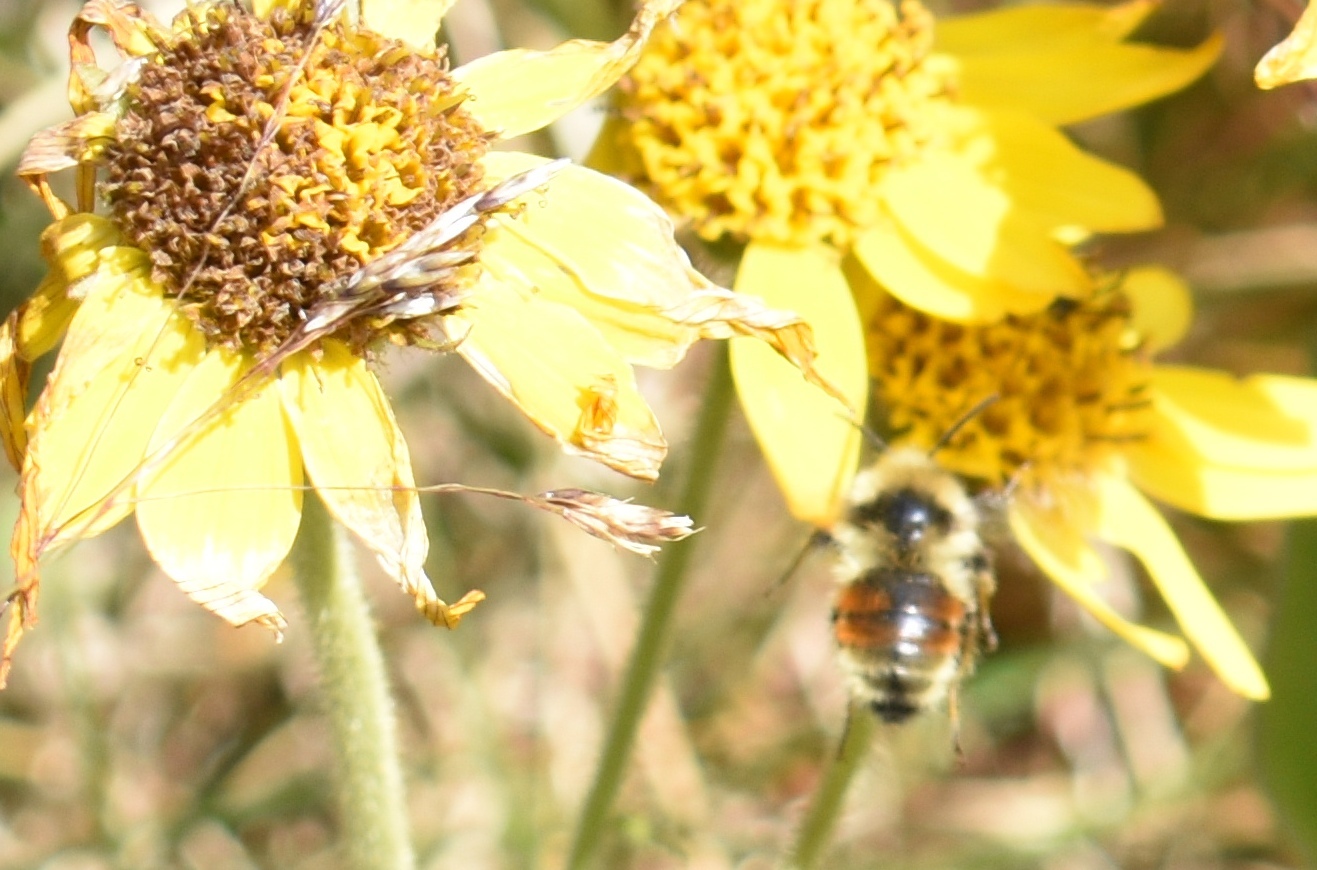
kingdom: Animalia
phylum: Arthropoda
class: Insecta
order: Hymenoptera
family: Apidae
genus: Pyrobombus
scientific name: Pyrobombus
